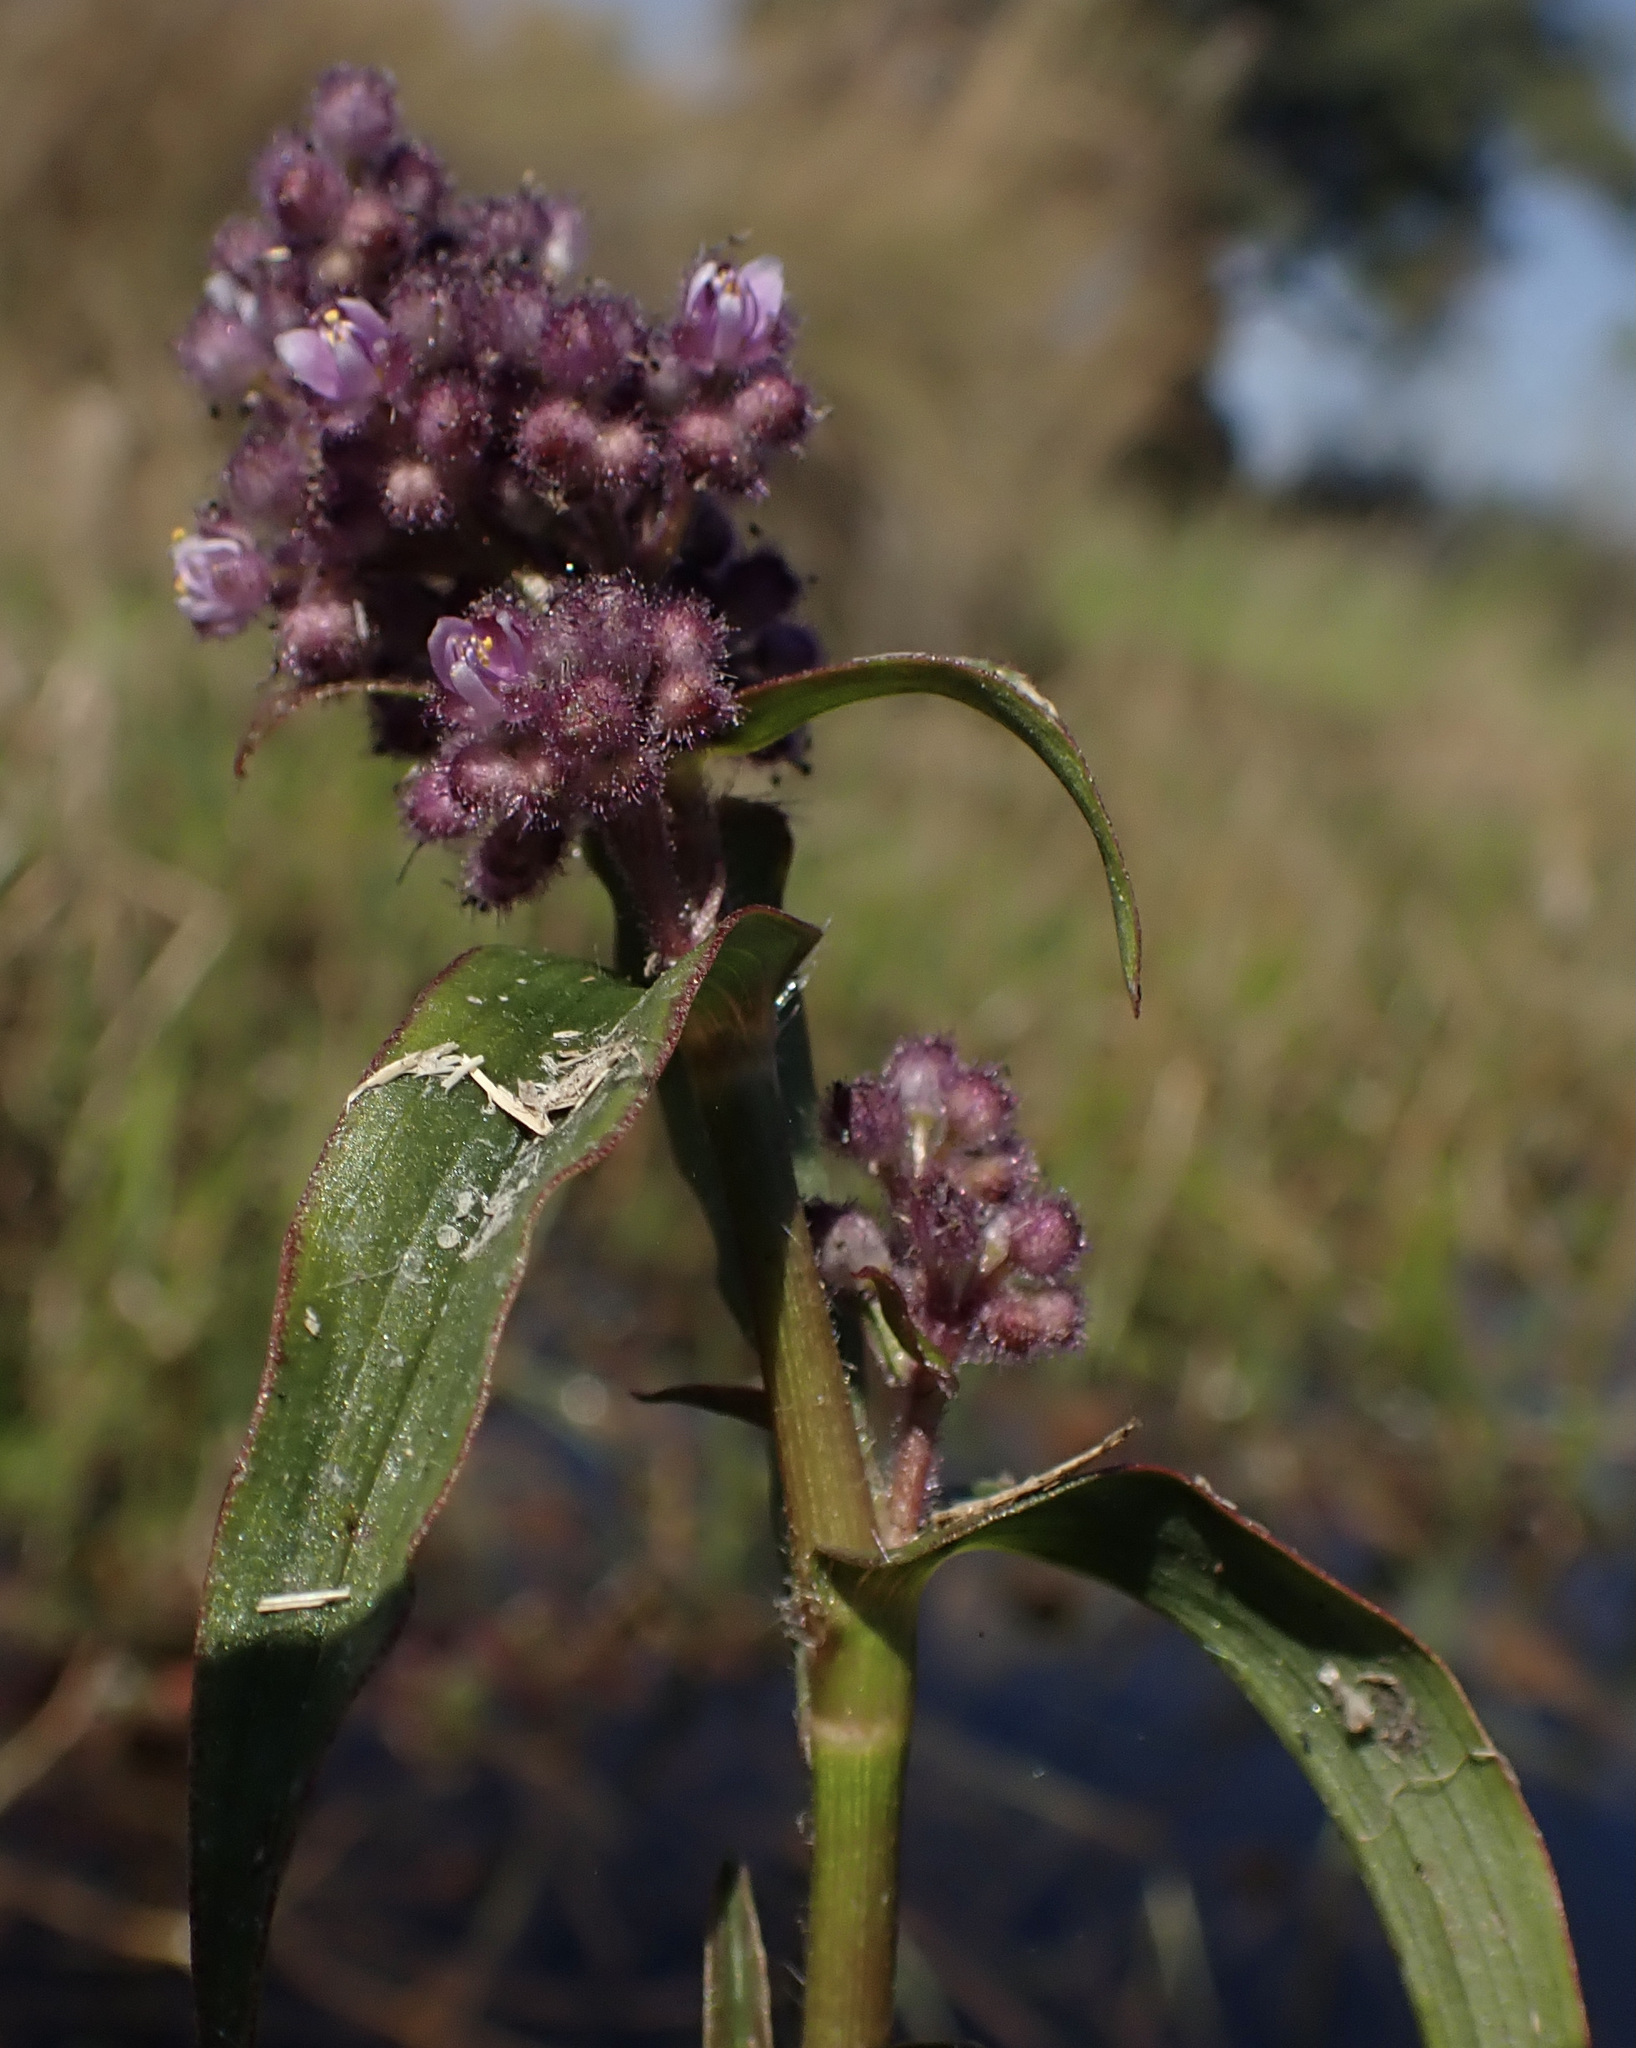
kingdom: Plantae
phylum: Tracheophyta
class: Liliopsida
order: Commelinales
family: Commelinaceae
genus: Floscopa
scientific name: Floscopa glomerata
